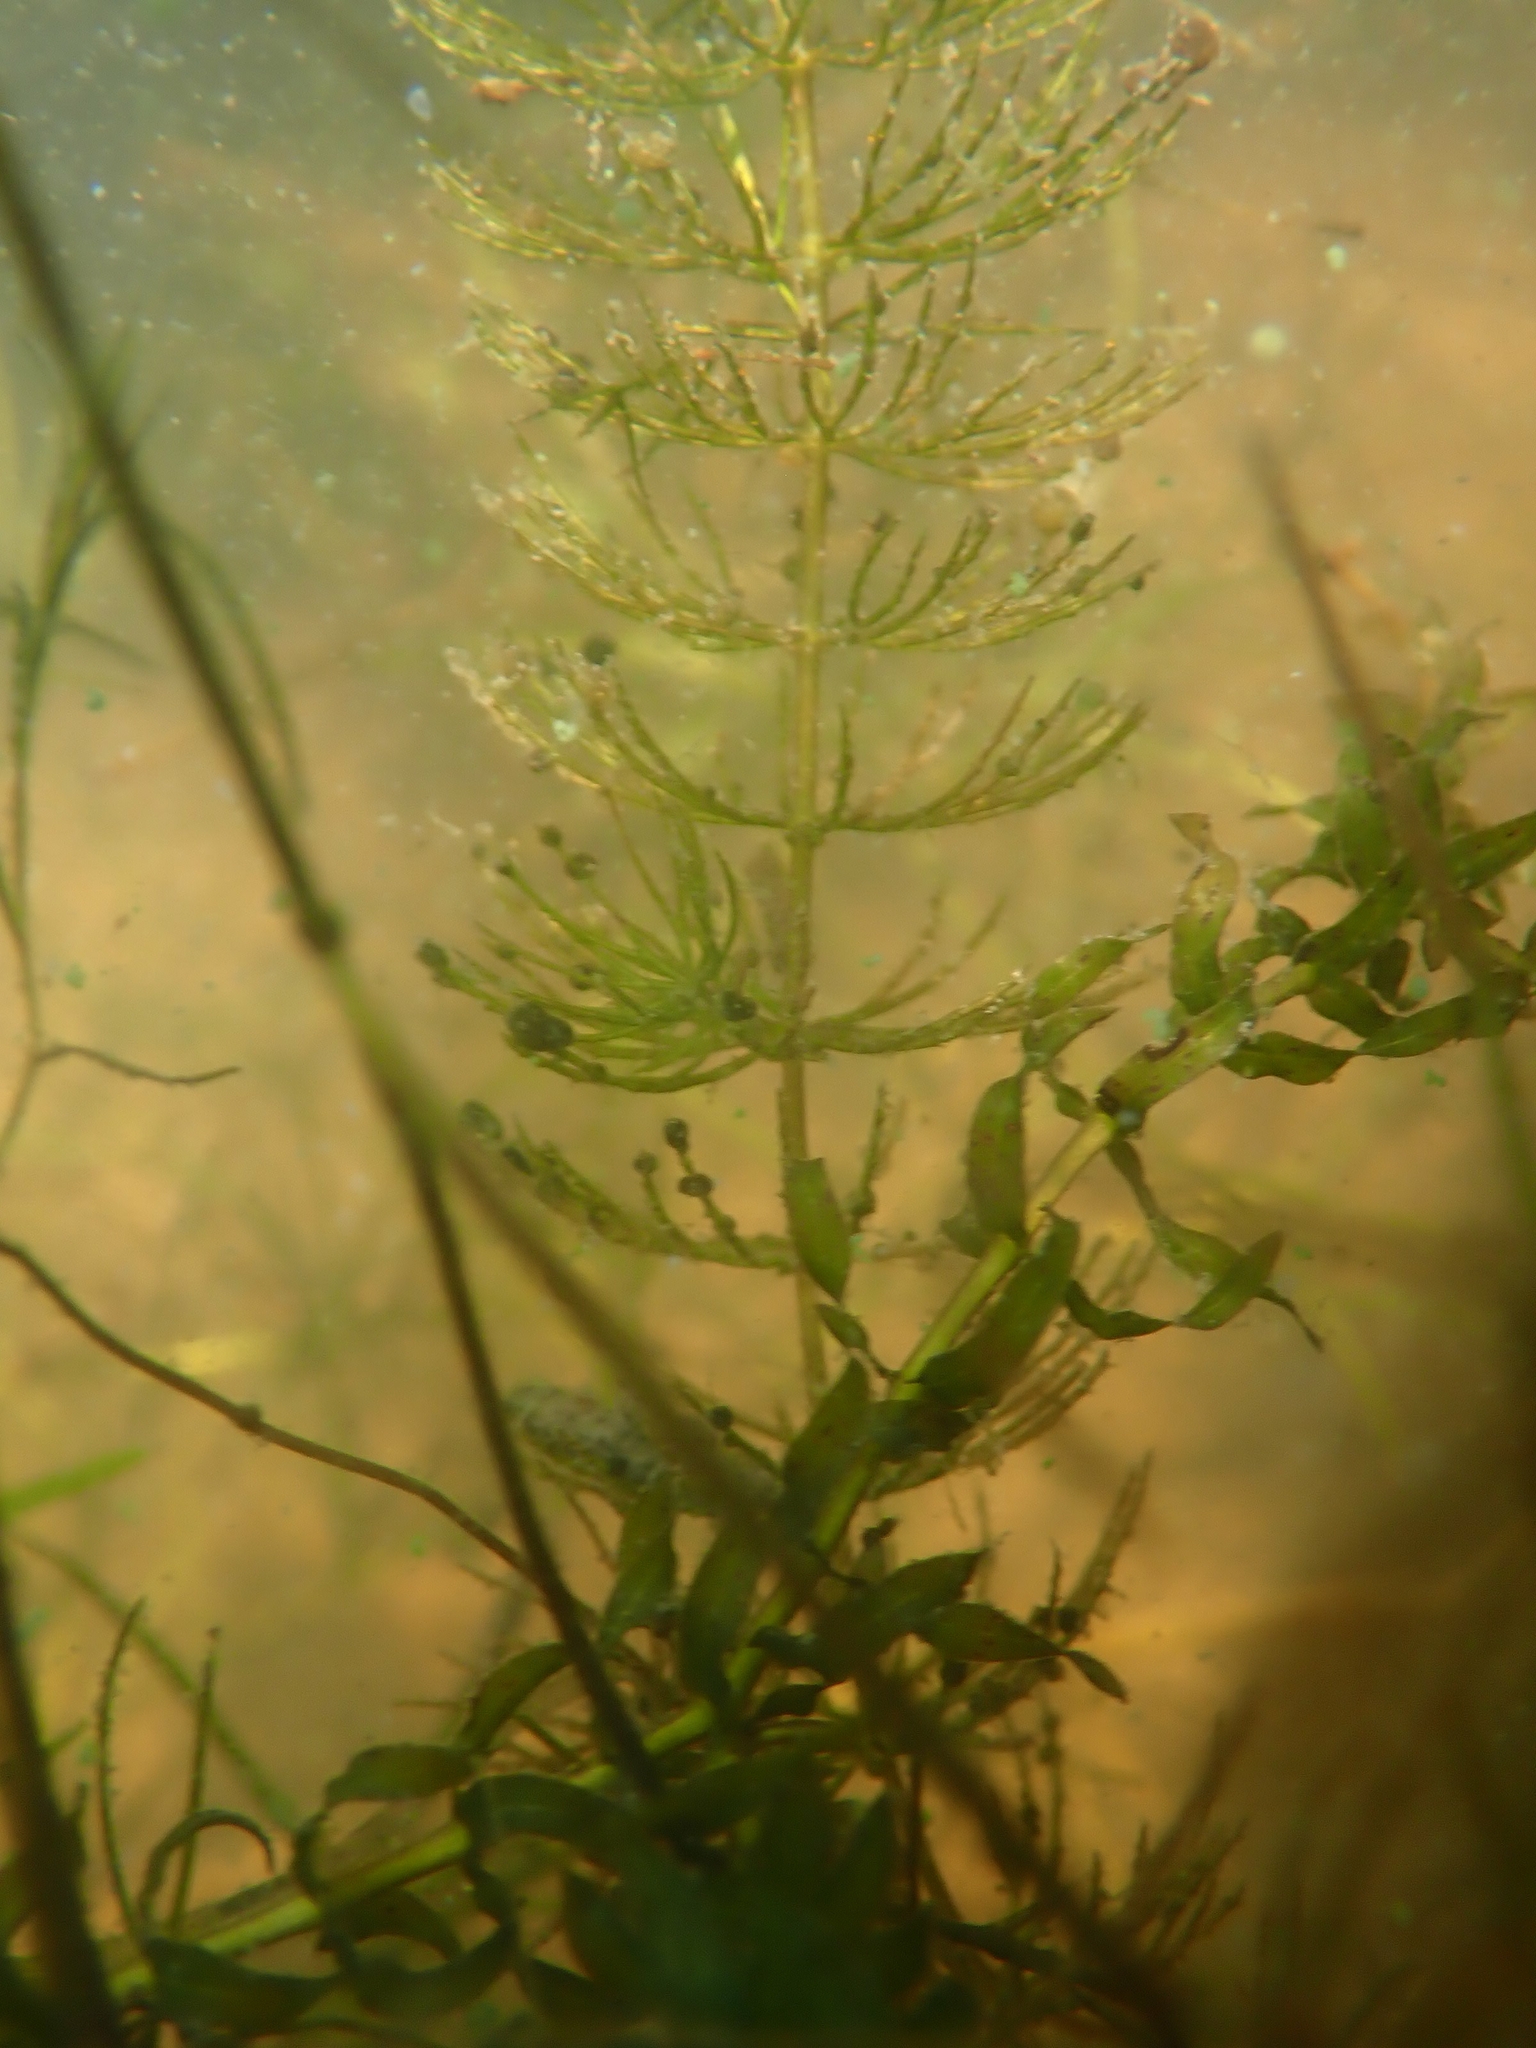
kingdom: Plantae
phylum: Tracheophyta
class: Liliopsida
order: Alismatales
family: Hydrocharitaceae
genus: Elodea
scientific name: Elodea canadensis
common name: Canadian waterweed
